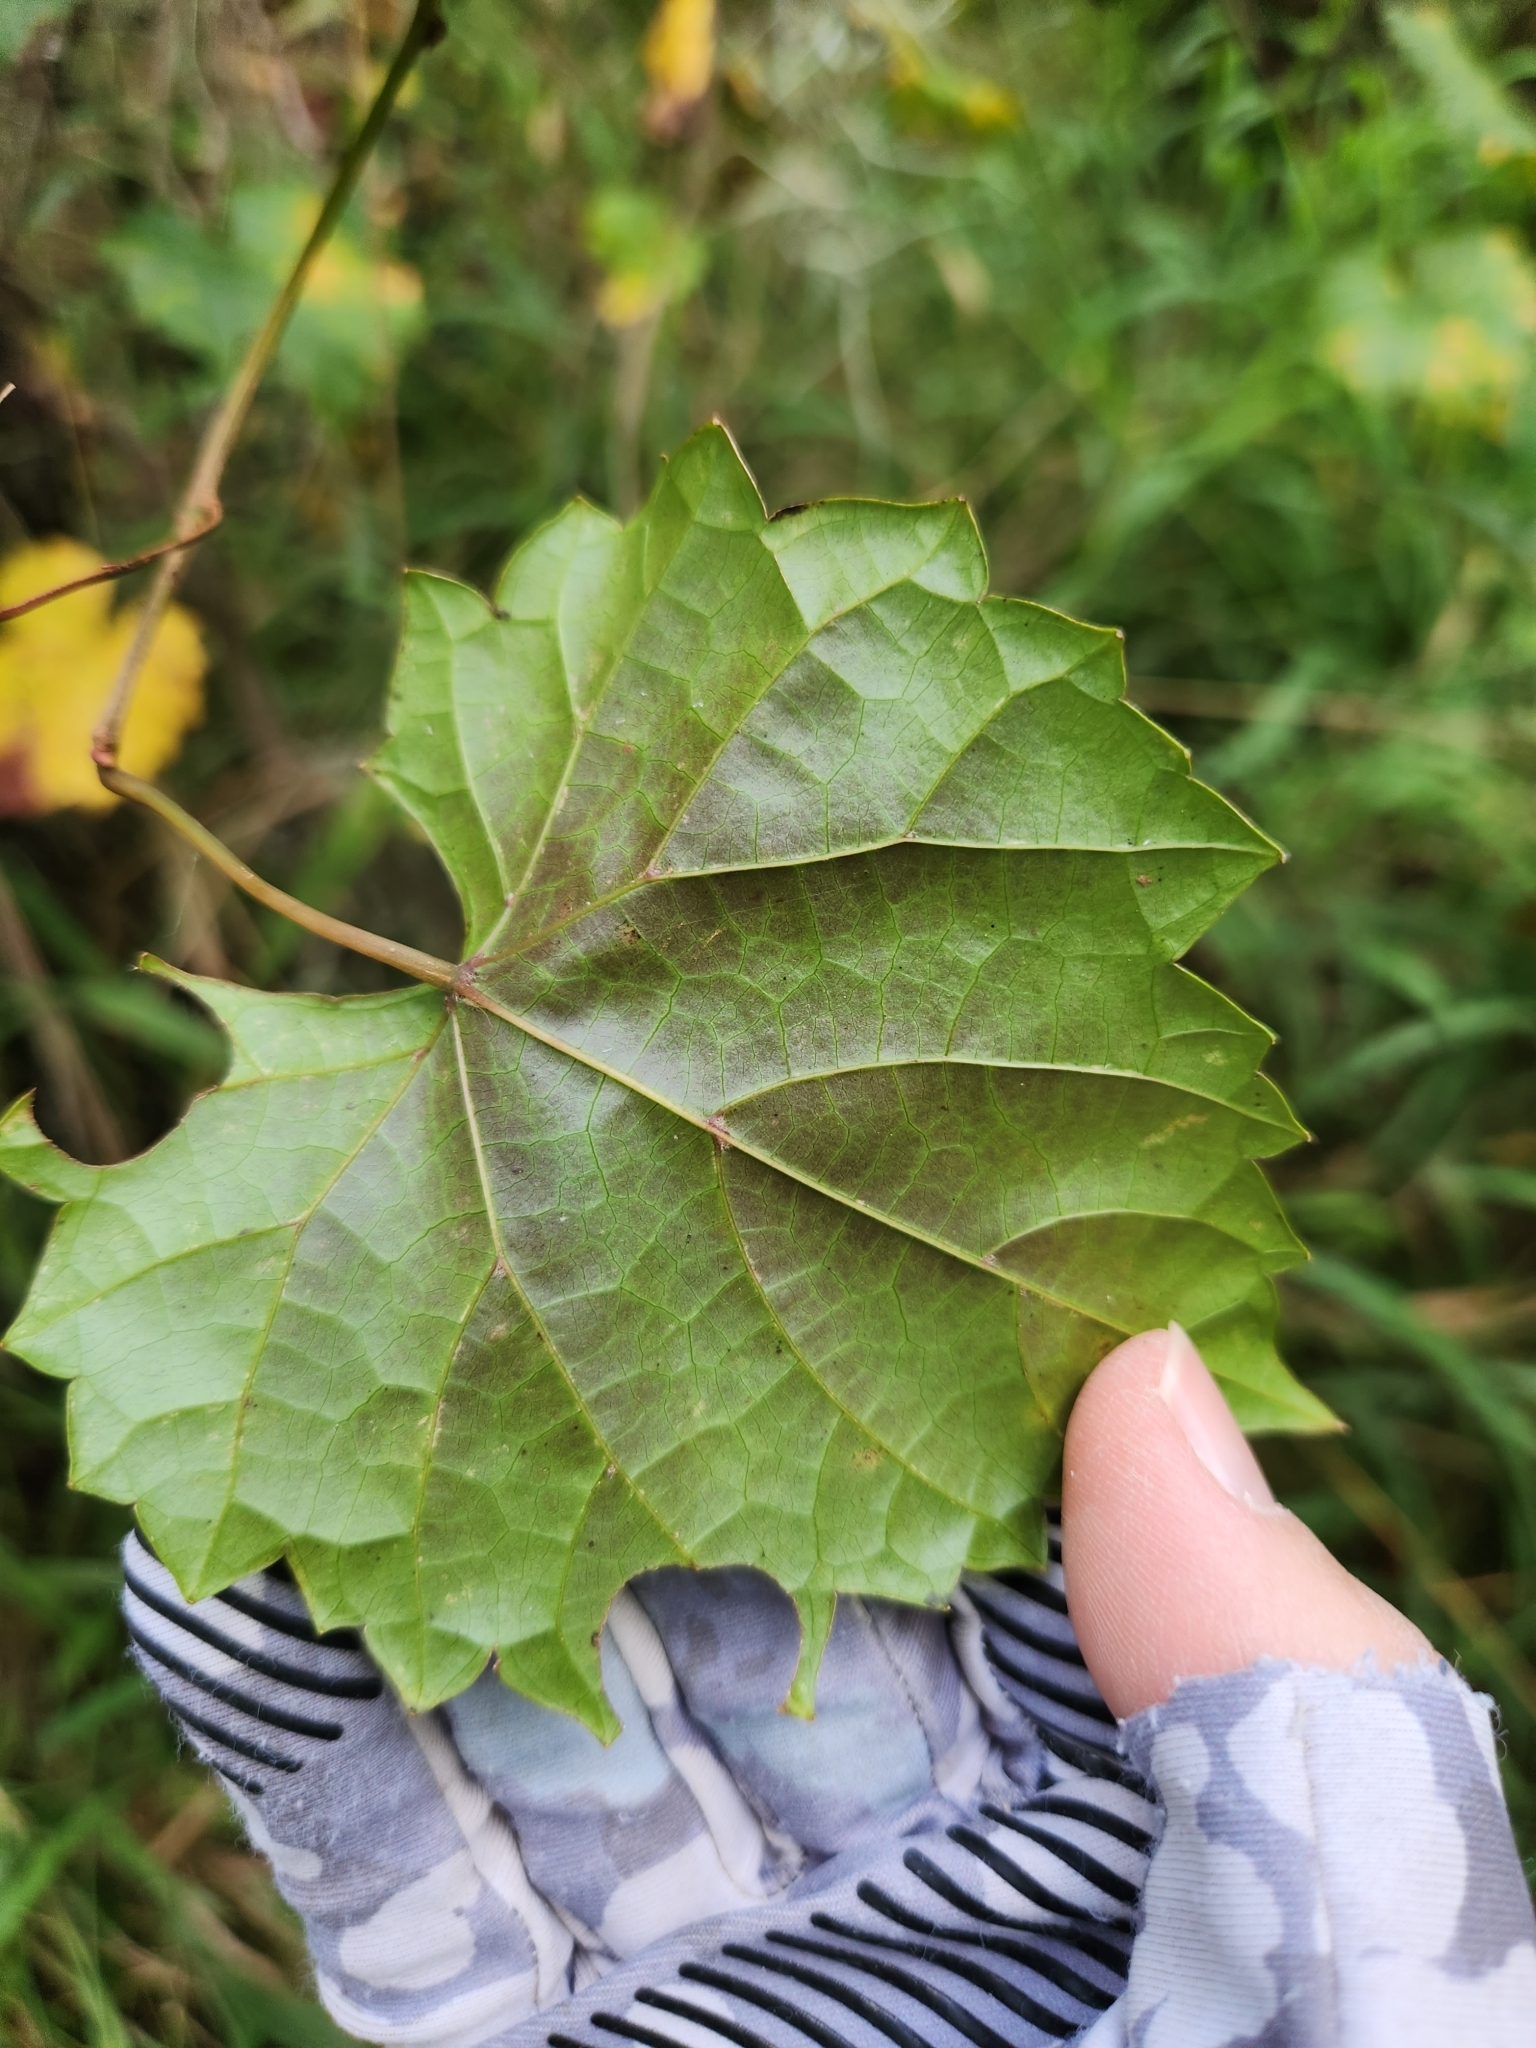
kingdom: Plantae
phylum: Tracheophyta
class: Magnoliopsida
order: Vitales
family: Vitaceae
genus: Vitis
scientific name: Vitis rotundifolia
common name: Muscadine grape
